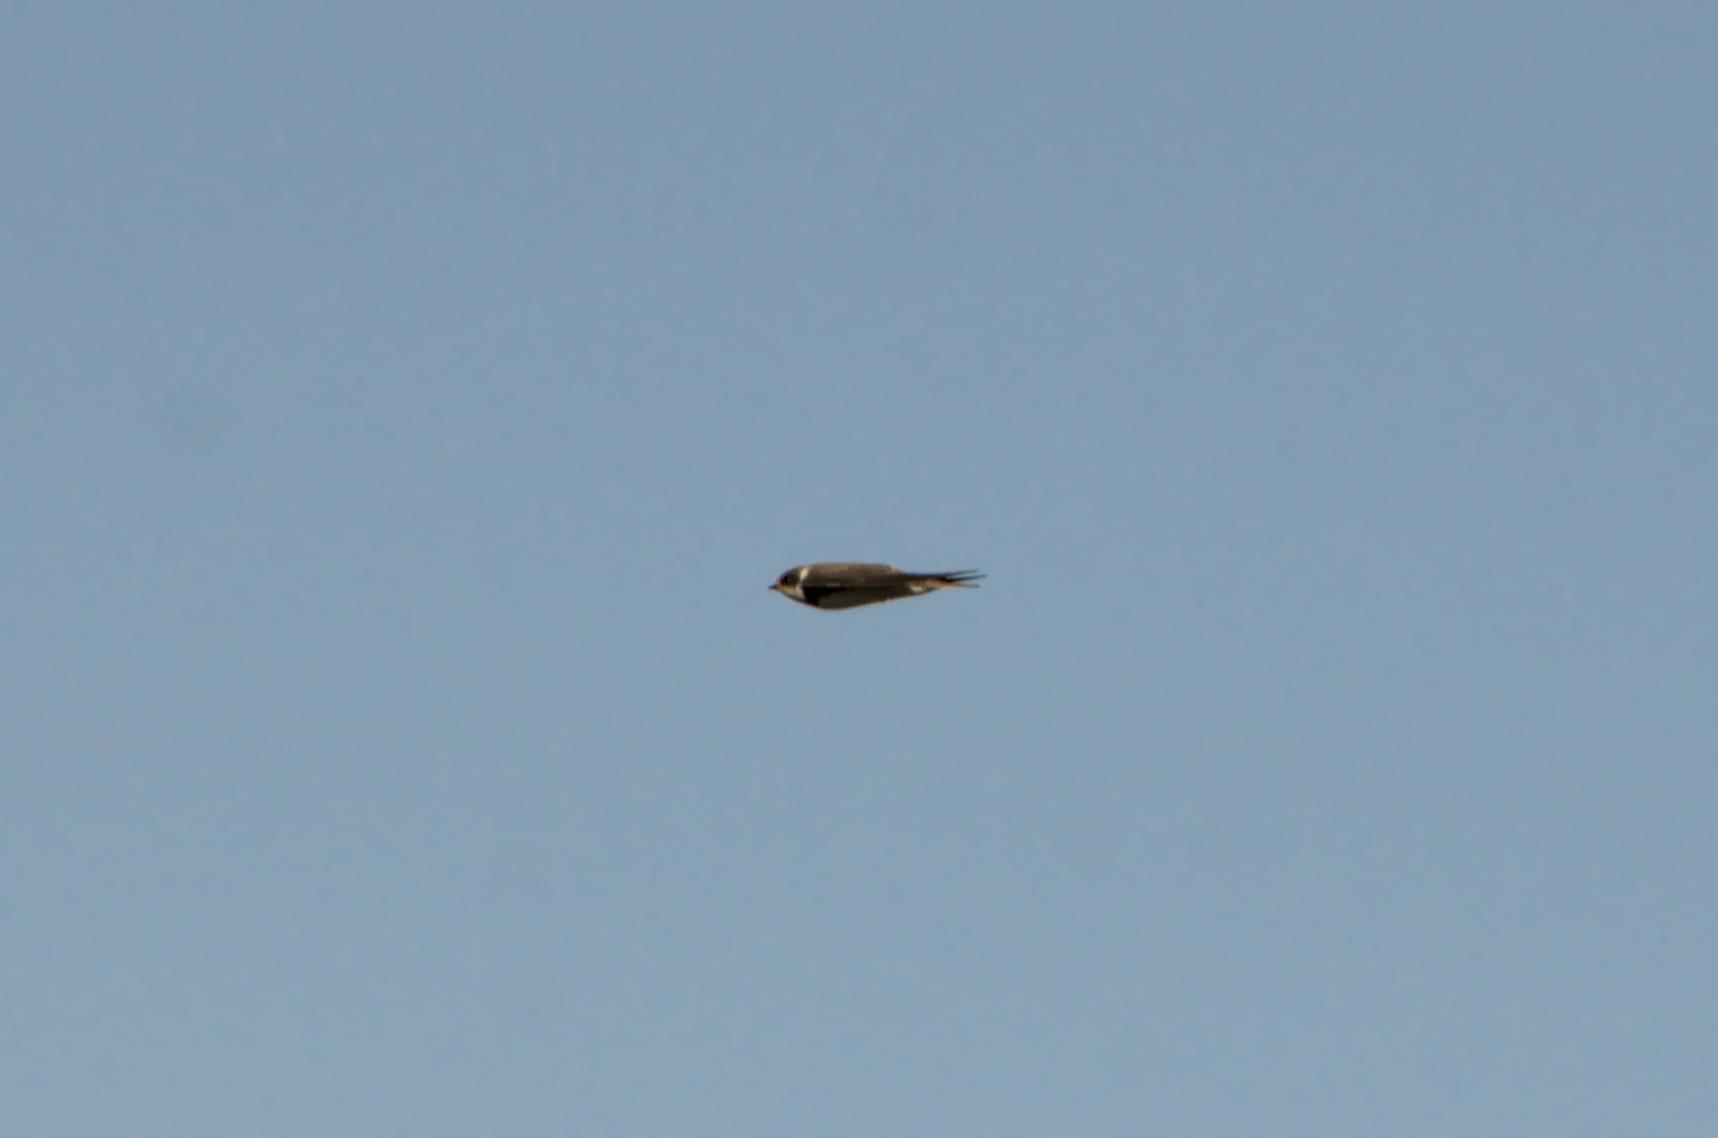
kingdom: Animalia
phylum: Chordata
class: Aves
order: Passeriformes
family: Hirundinidae
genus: Riparia
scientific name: Riparia riparia
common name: Sand martin
